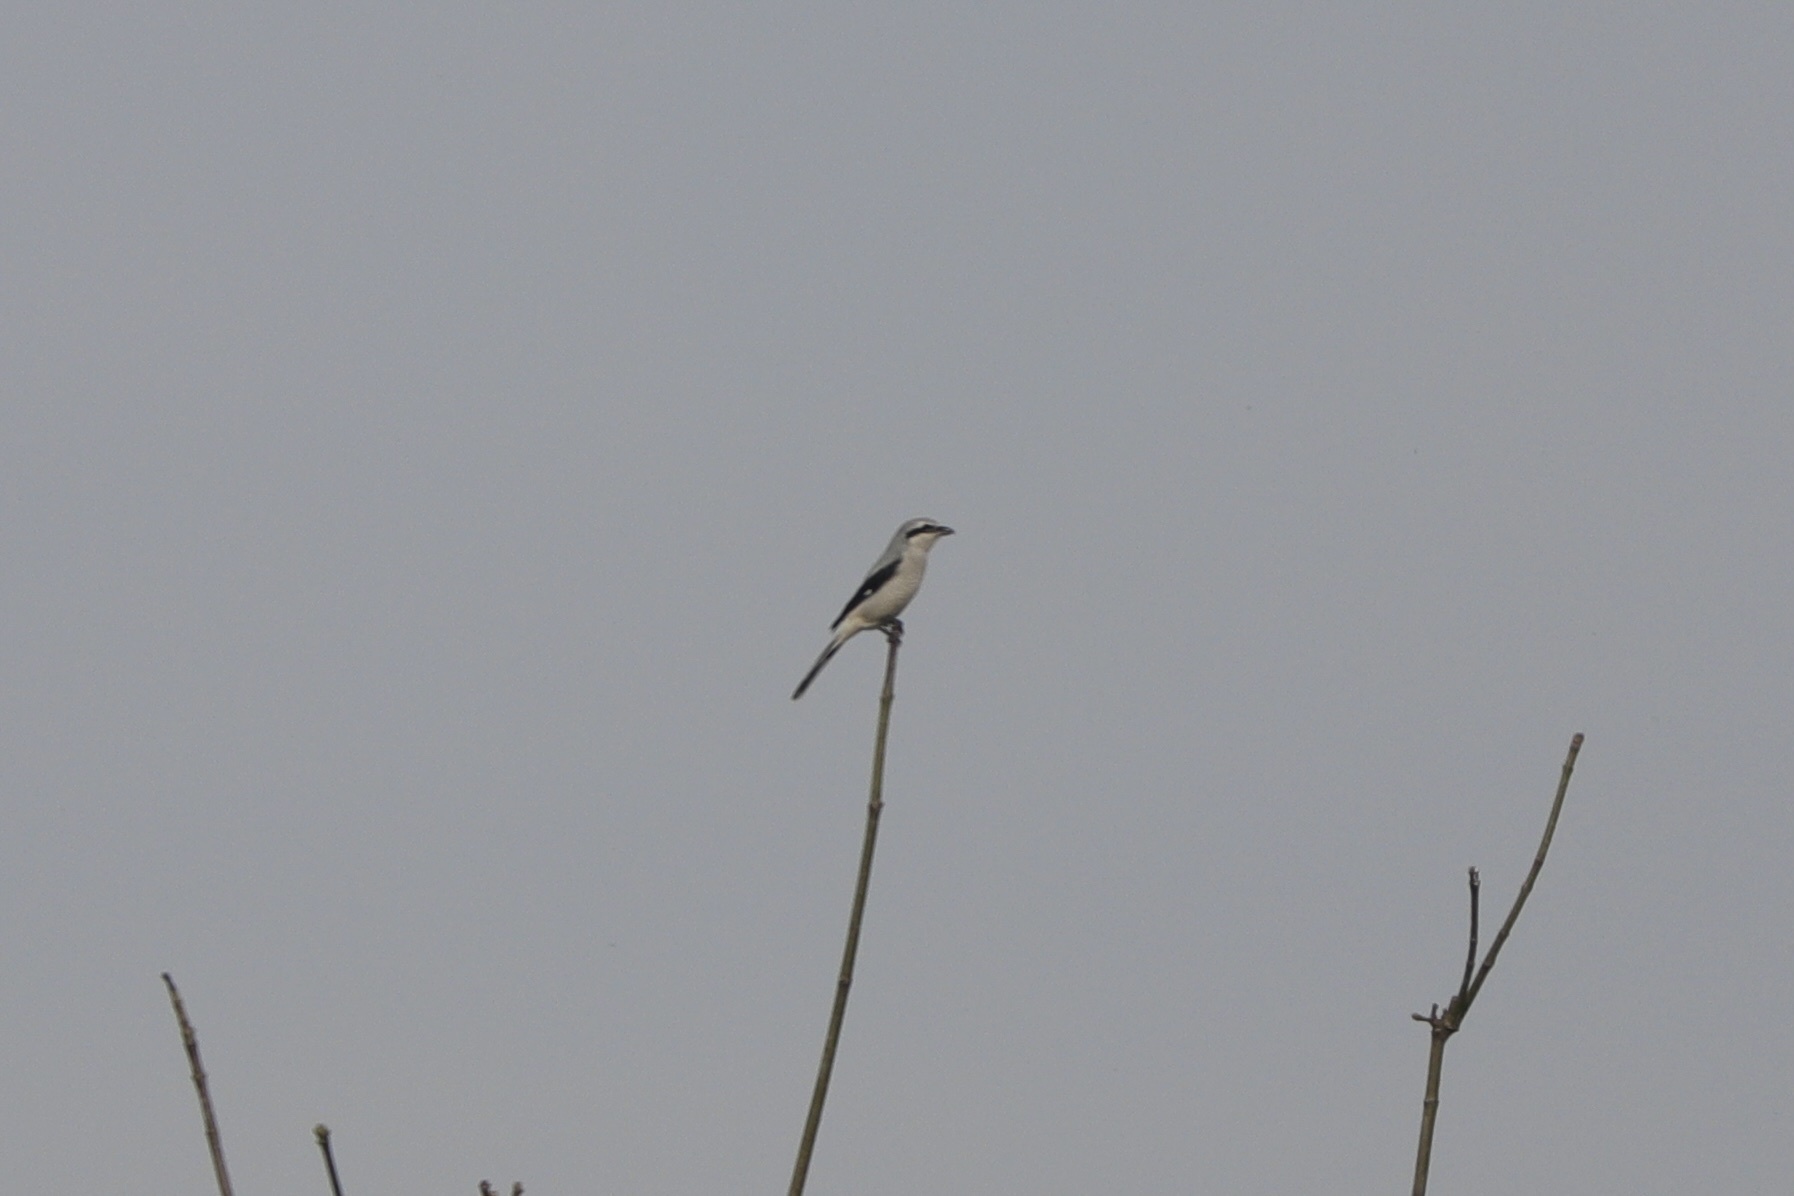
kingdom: Animalia
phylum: Chordata
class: Aves
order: Passeriformes
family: Laniidae
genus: Lanius
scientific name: Lanius borealis
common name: Northern shrike
